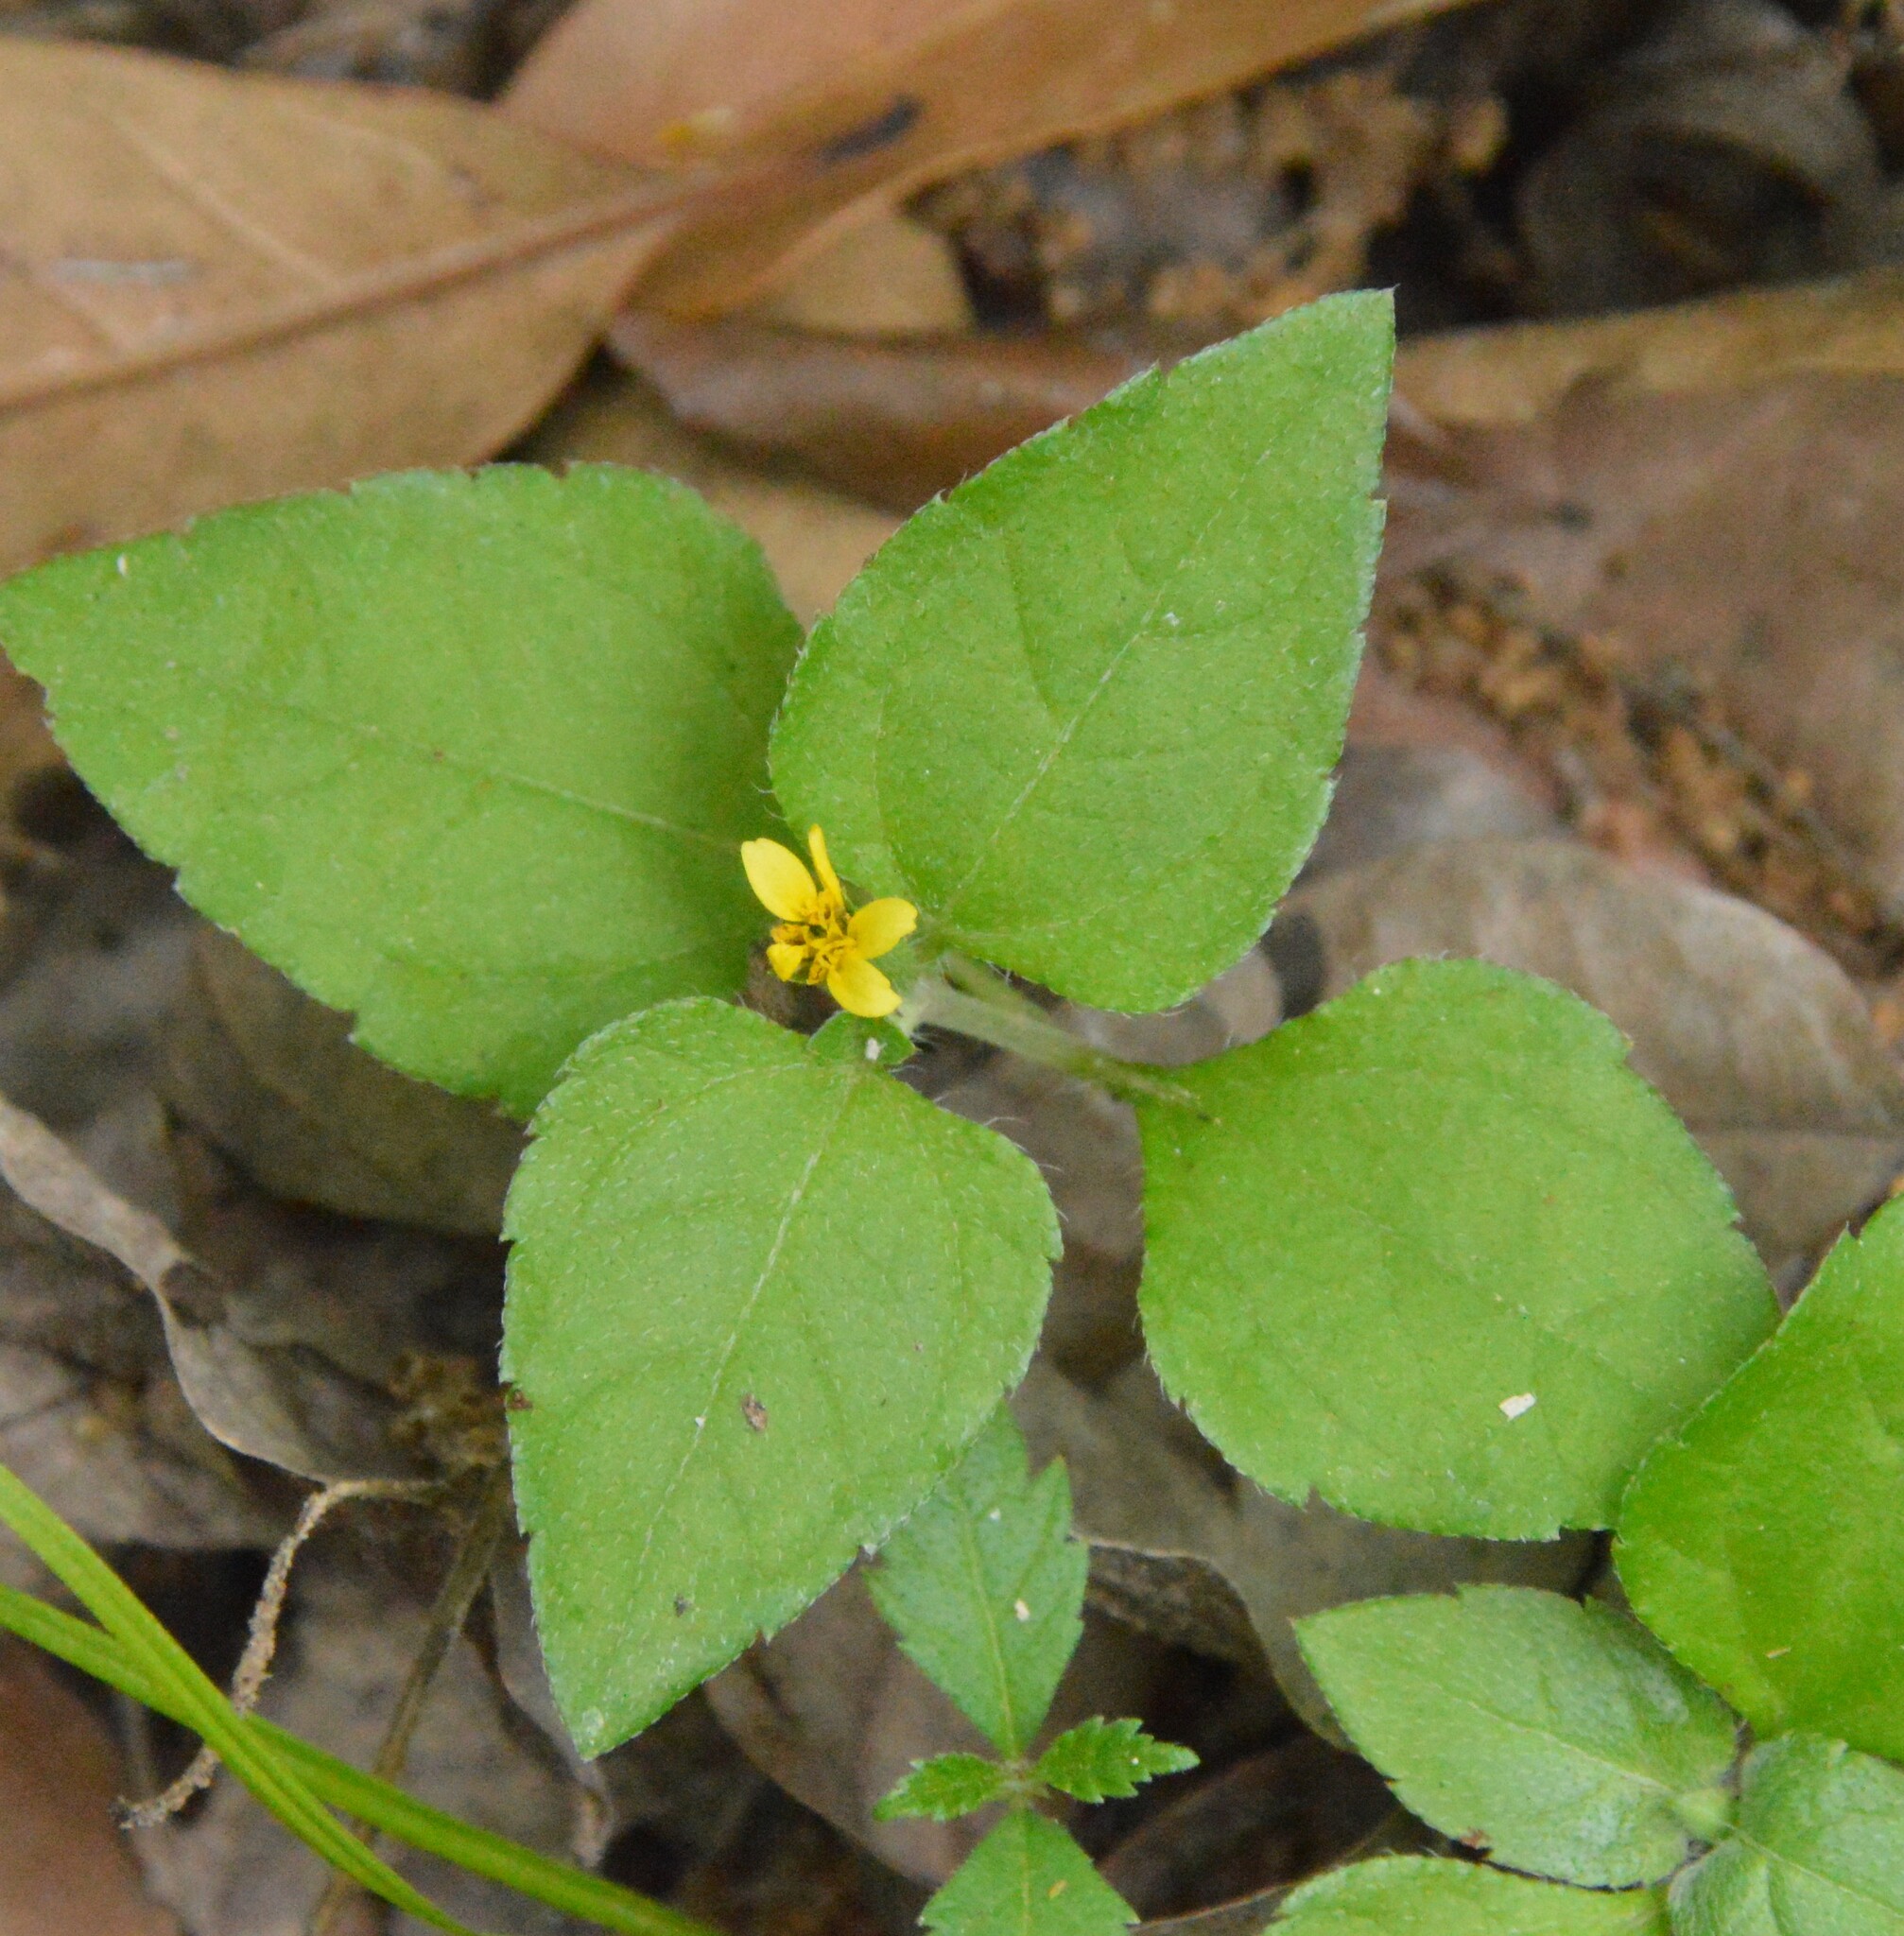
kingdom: Plantae
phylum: Tracheophyta
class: Magnoliopsida
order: Asterales
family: Asteraceae
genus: Calyptocarpus
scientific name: Calyptocarpus vialis
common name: Straggler daisy
